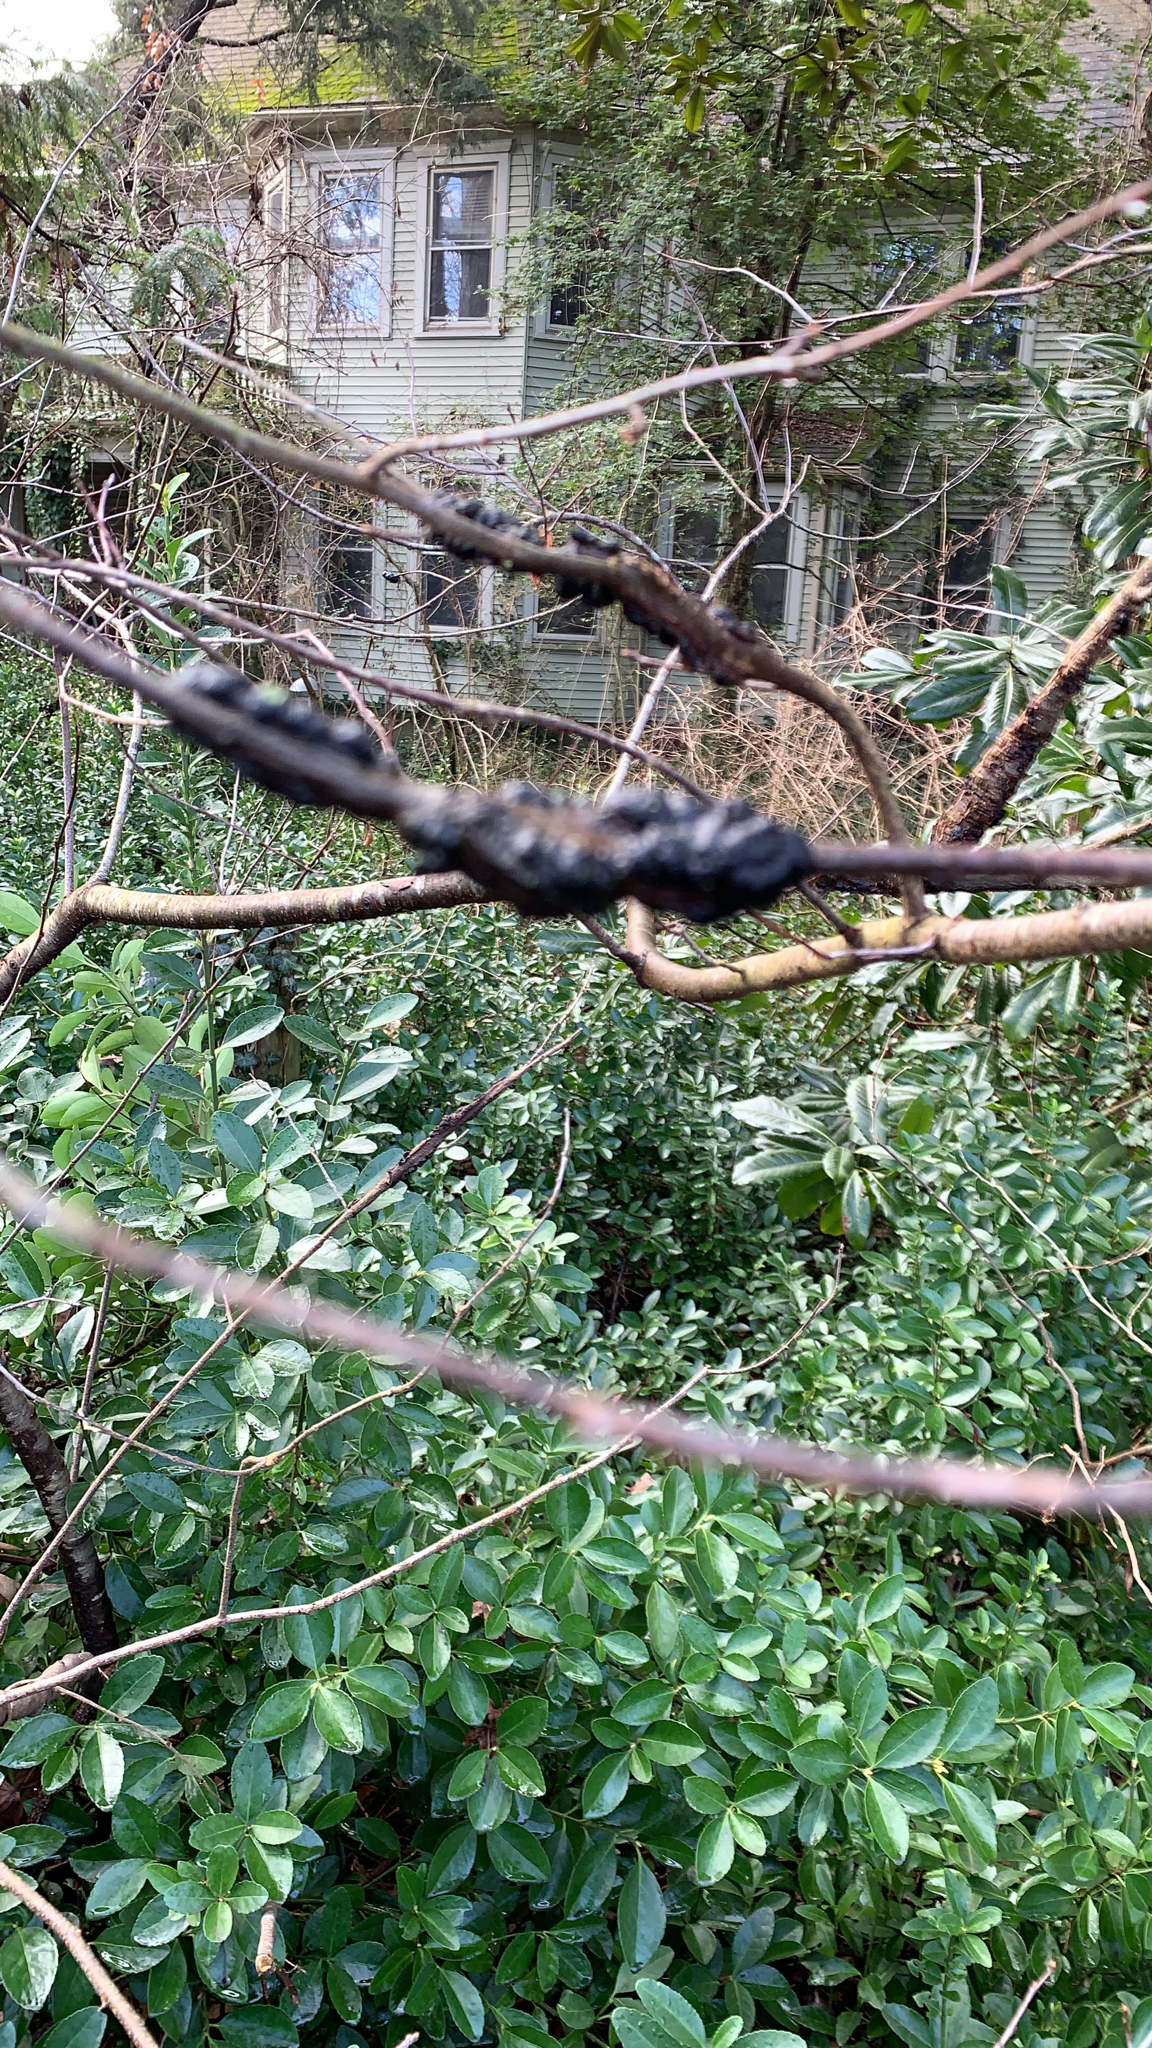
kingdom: Fungi
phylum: Ascomycota
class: Dothideomycetes
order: Venturiales
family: Venturiaceae
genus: Apiosporina
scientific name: Apiosporina morbosa
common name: Black knot
